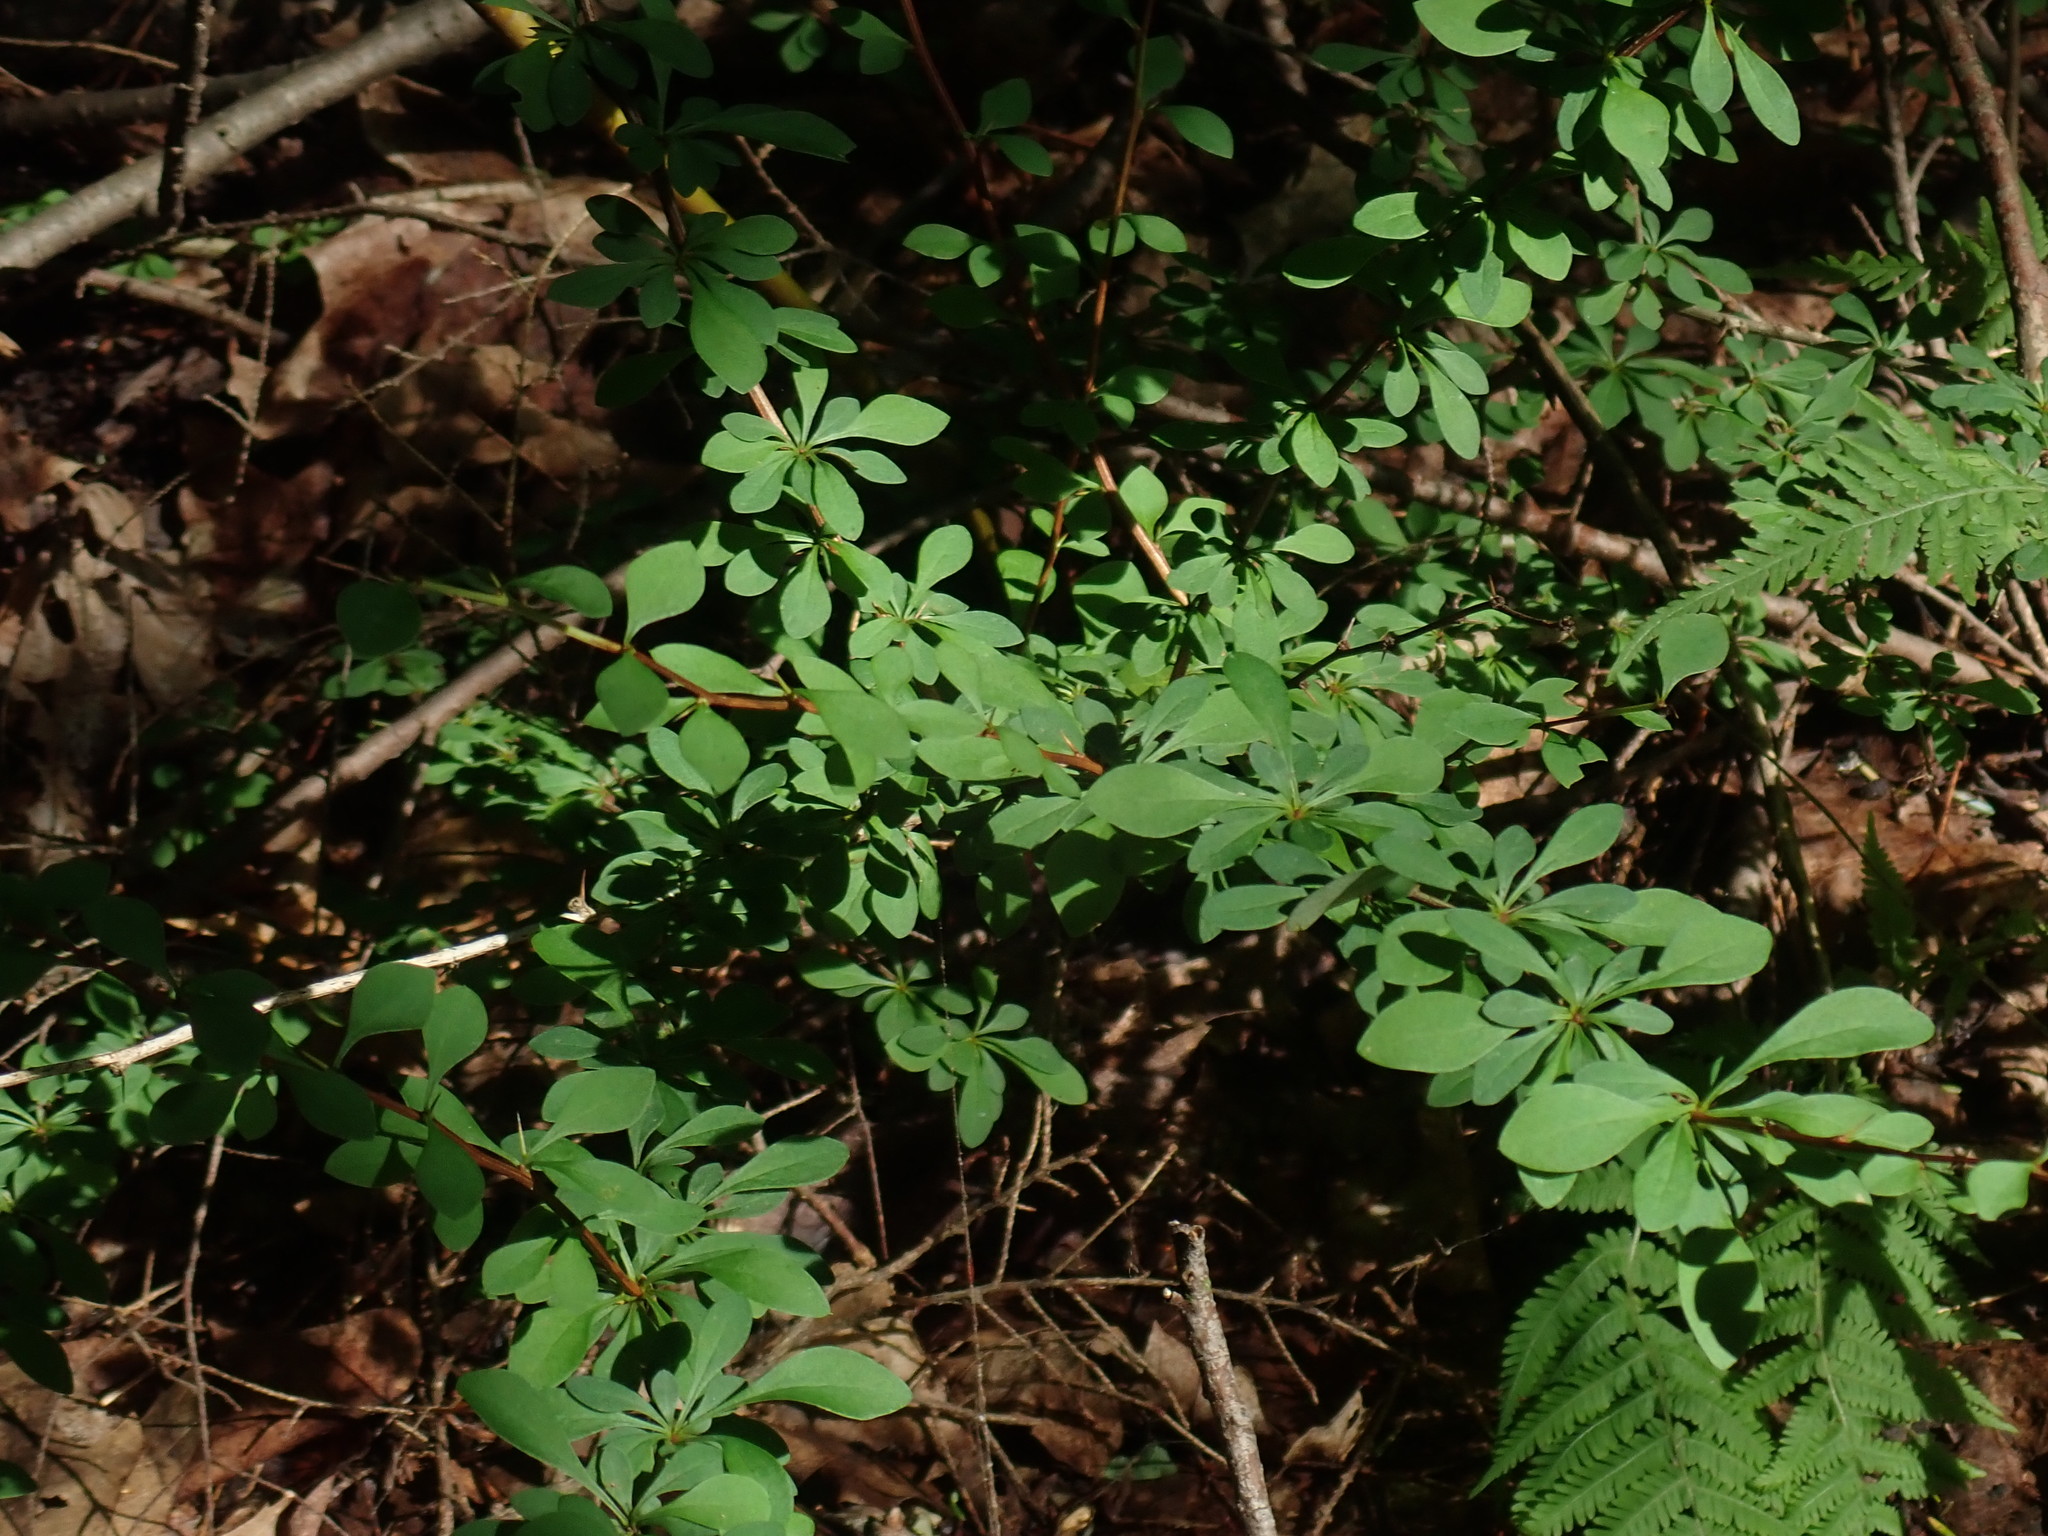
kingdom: Plantae
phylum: Tracheophyta
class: Magnoliopsida
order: Ranunculales
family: Berberidaceae
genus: Berberis
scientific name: Berberis thunbergii
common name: Japanese barberry
